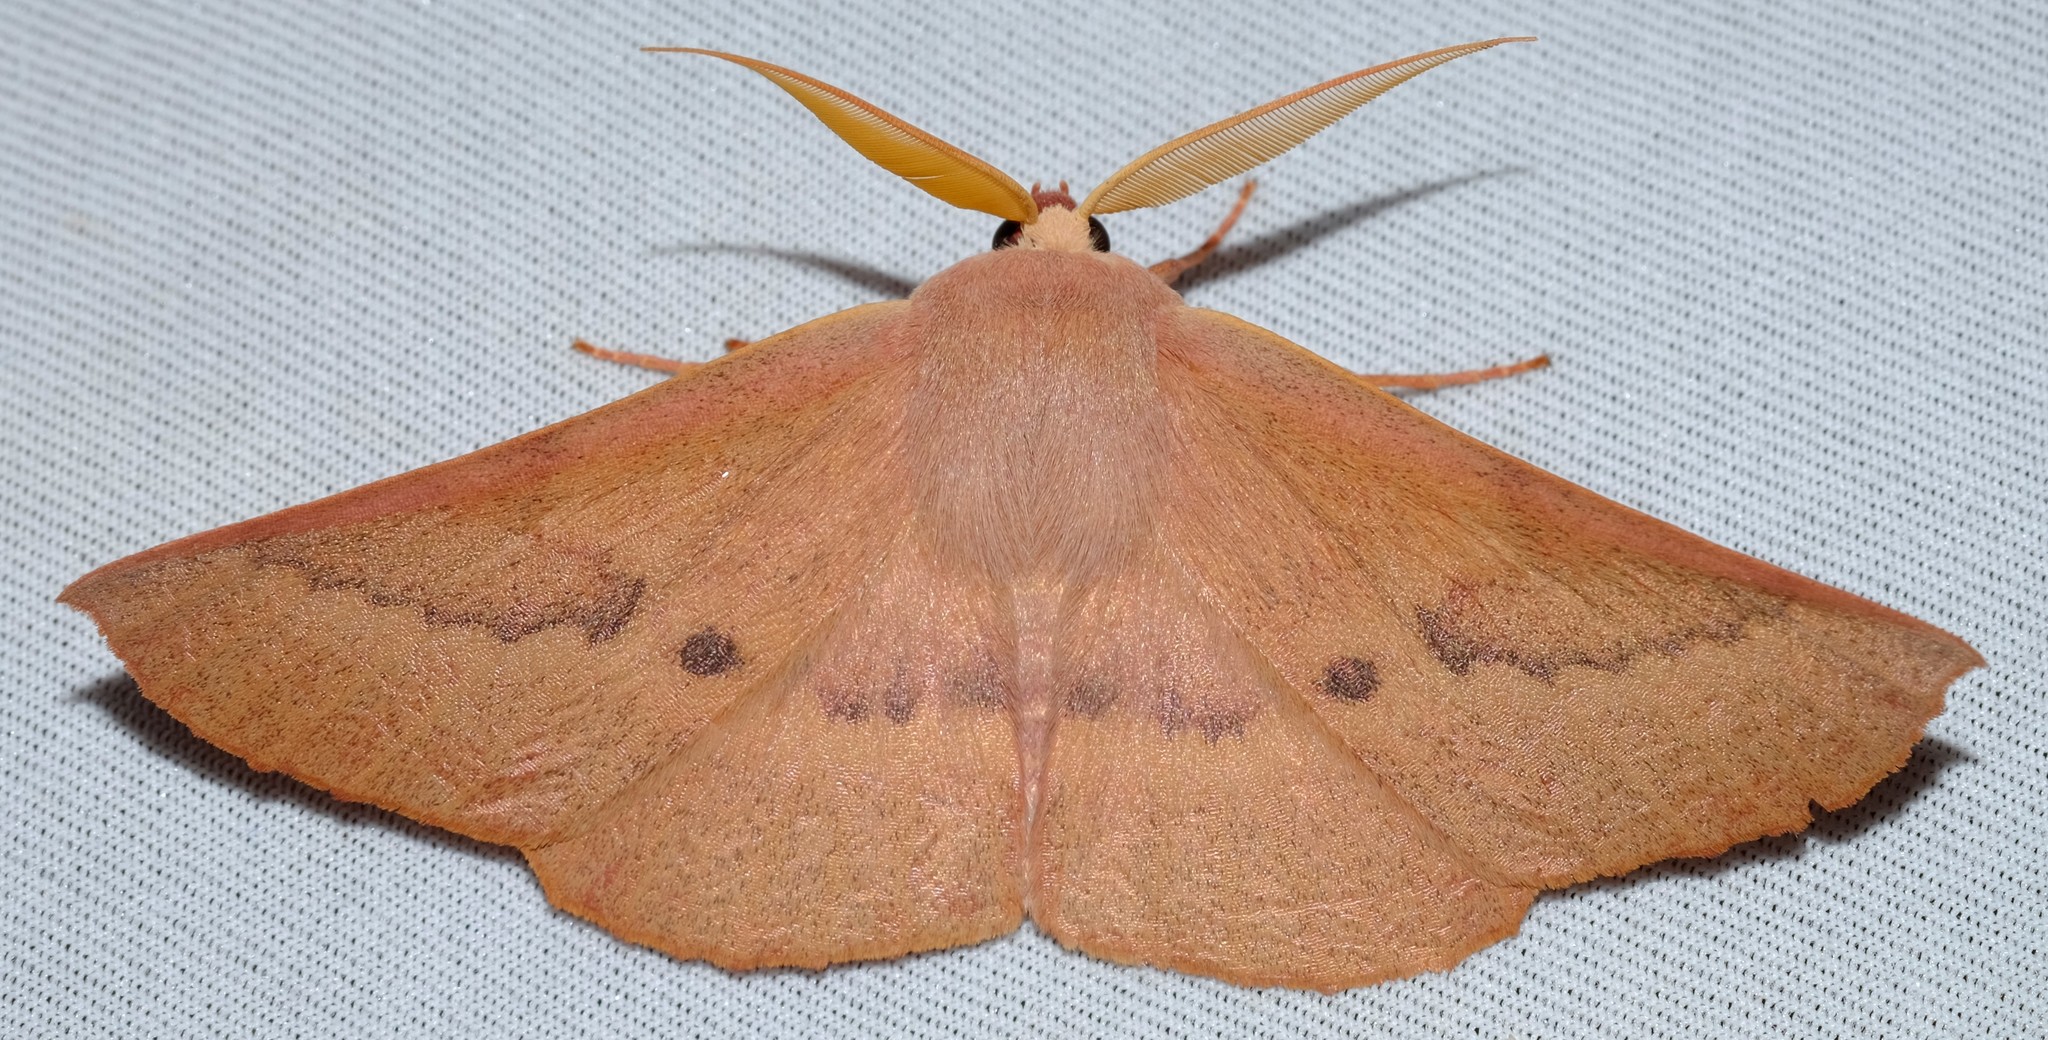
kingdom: Animalia
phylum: Arthropoda
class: Insecta
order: Lepidoptera
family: Geometridae
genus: Monoctenia
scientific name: Monoctenia falernaria
